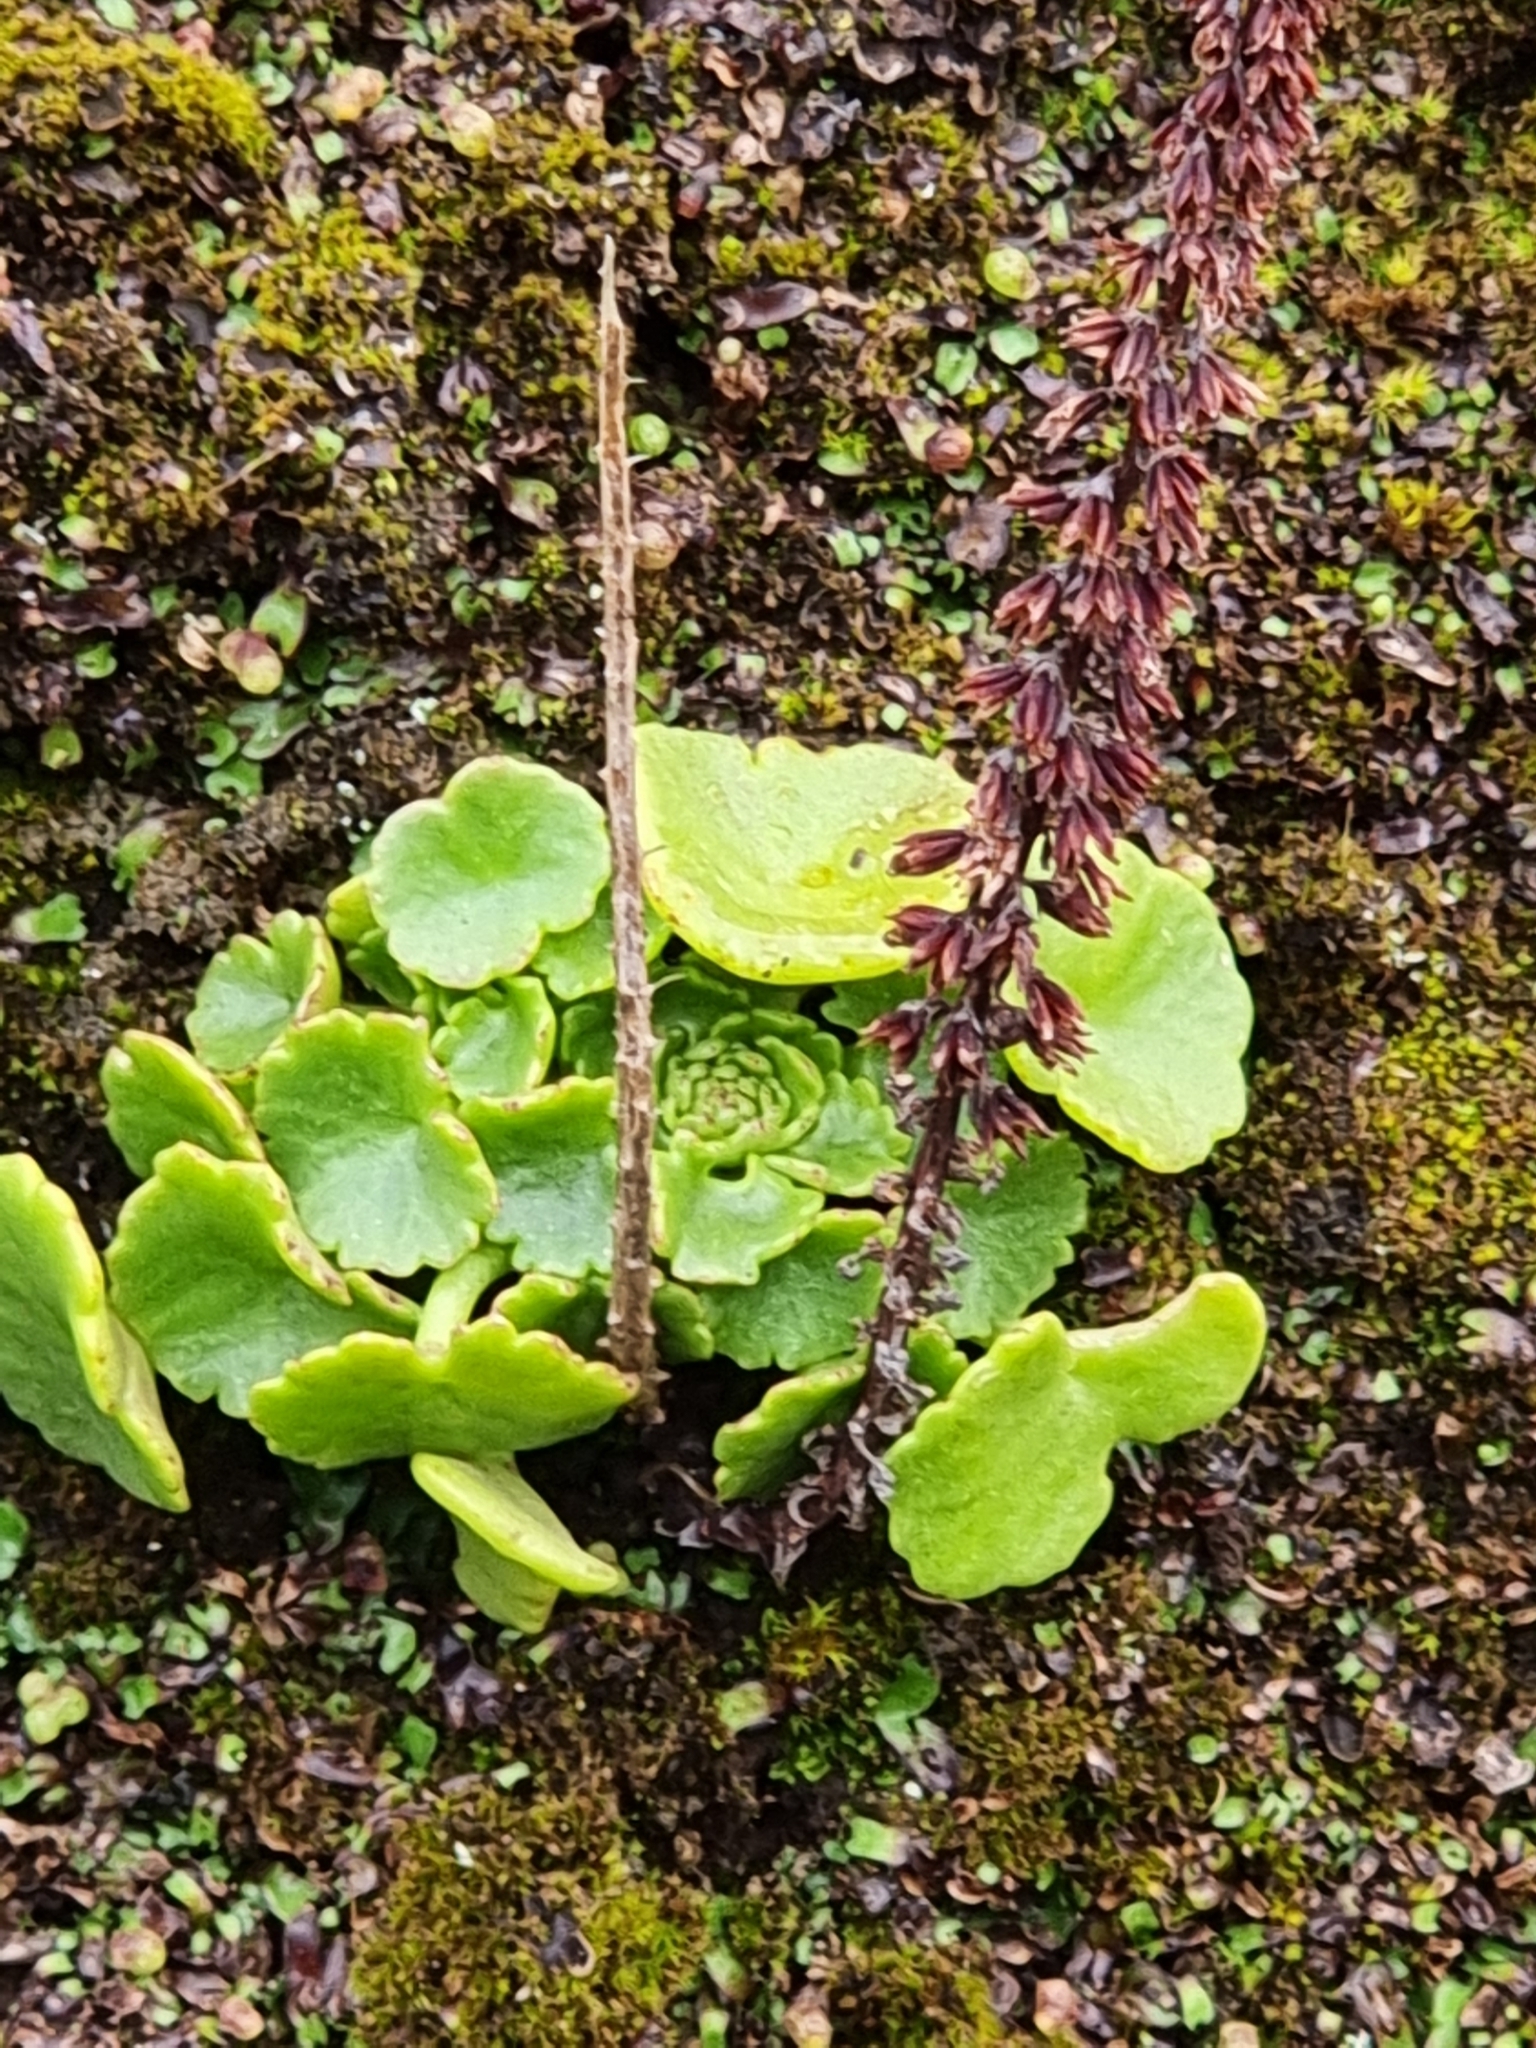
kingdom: Plantae
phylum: Tracheophyta
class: Magnoliopsida
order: Saxifragales
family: Crassulaceae
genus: Umbilicus
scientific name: Umbilicus rupestris
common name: Navelwort
